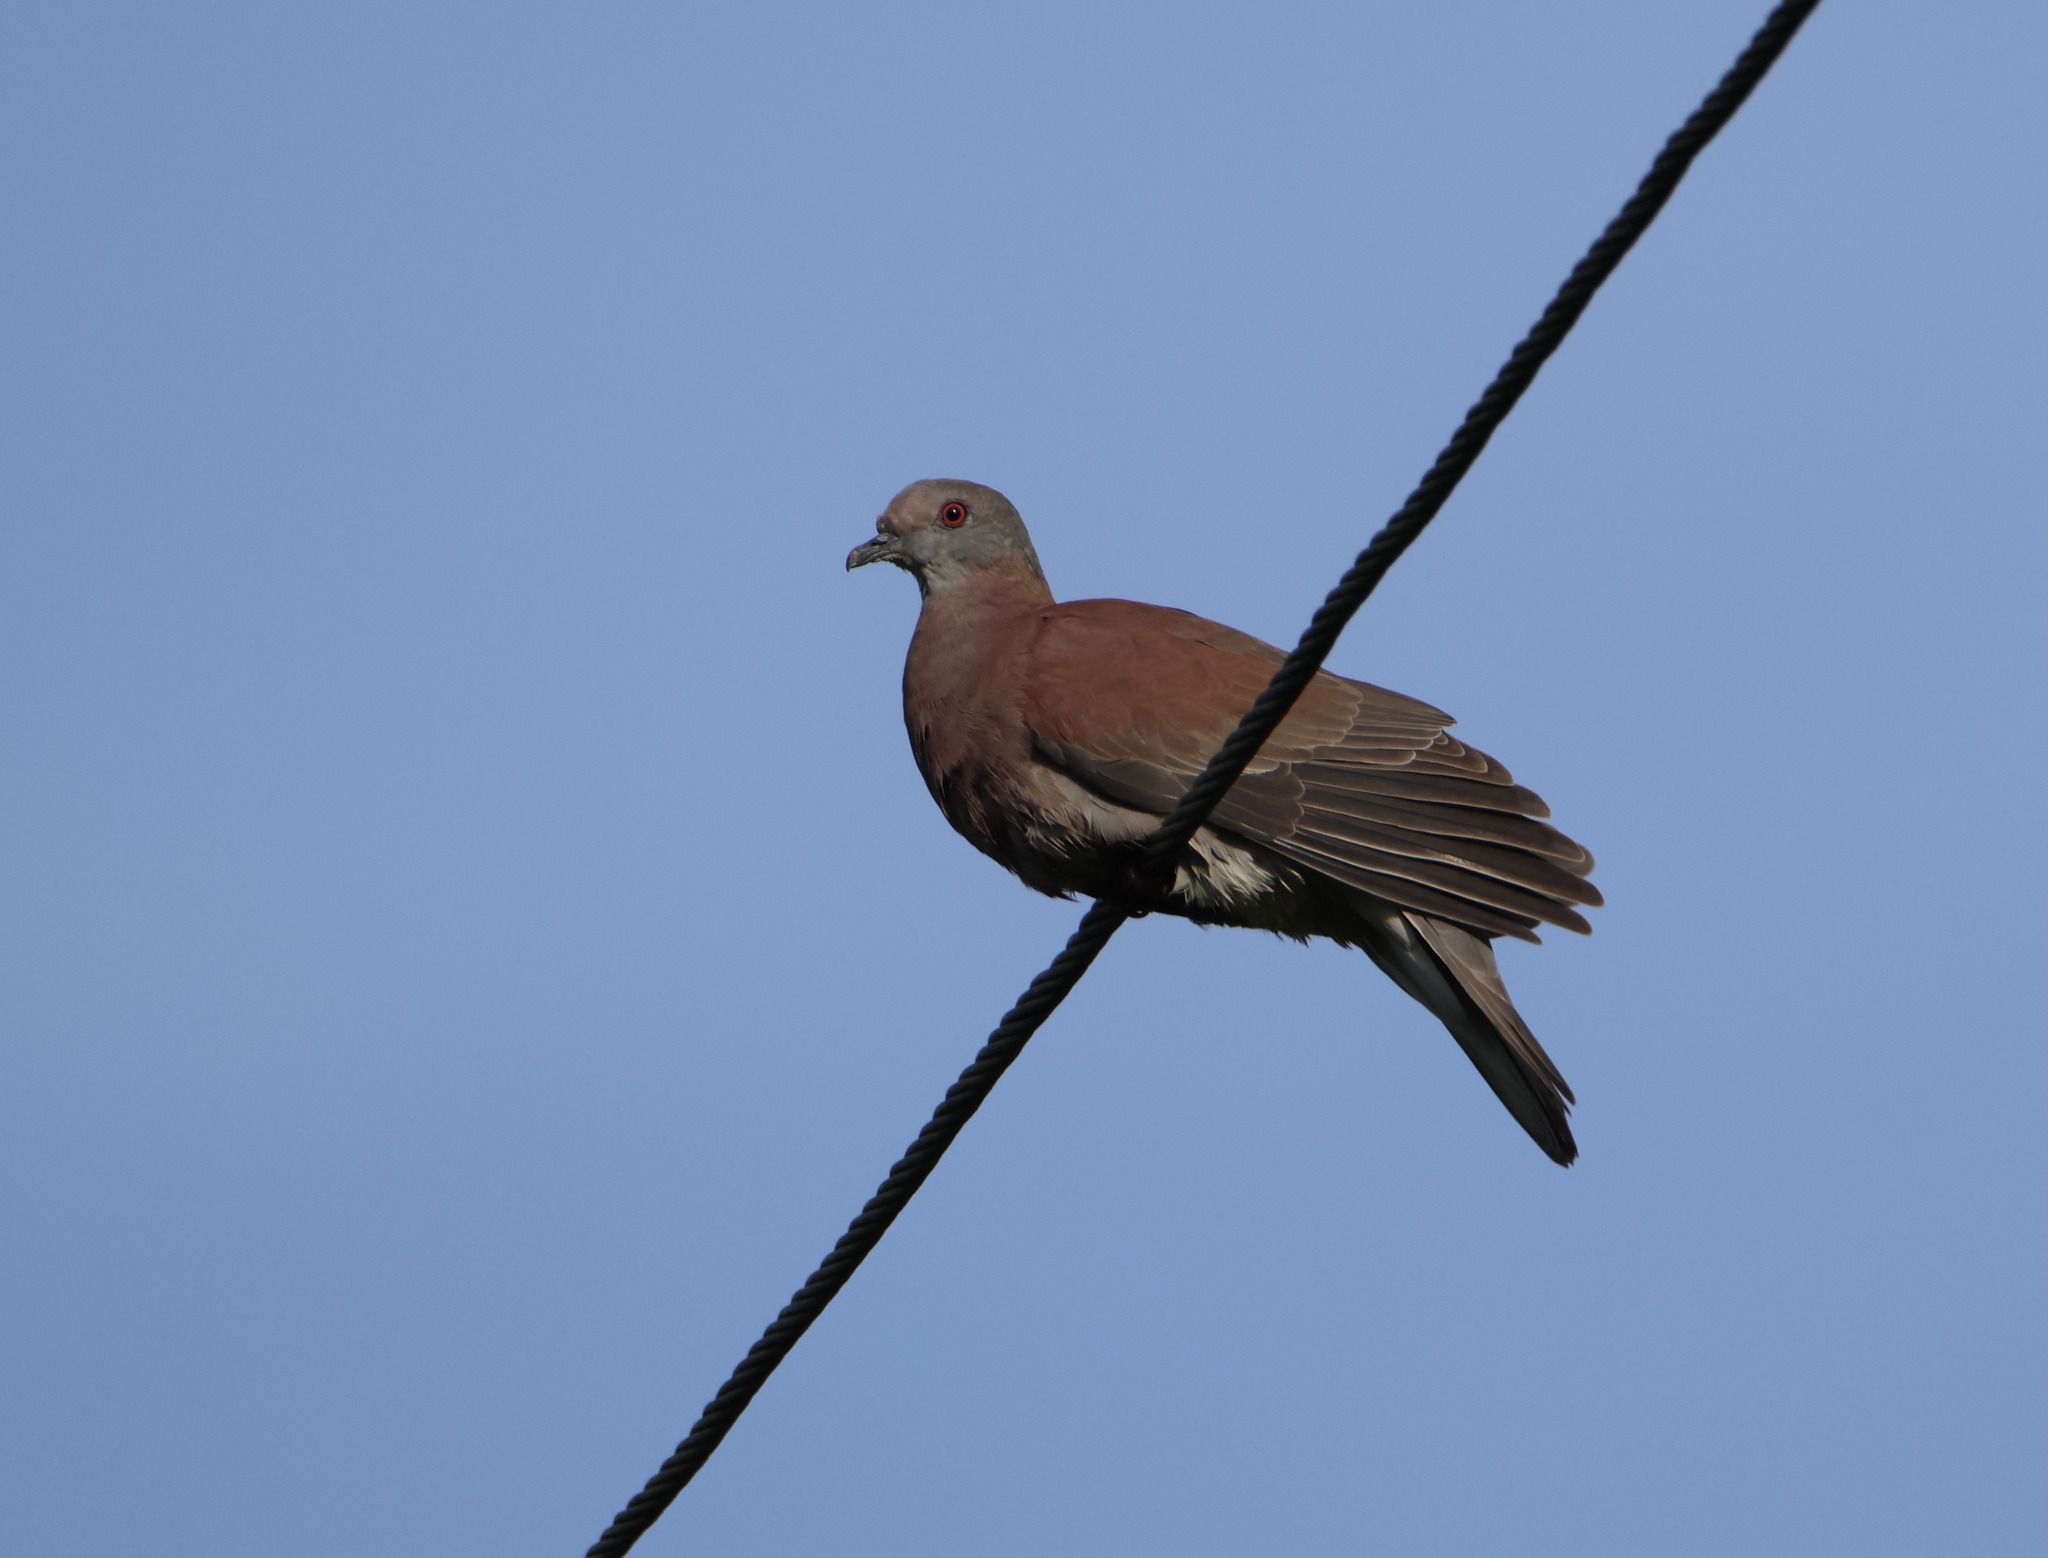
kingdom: Animalia
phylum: Chordata
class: Aves
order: Columbiformes
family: Columbidae
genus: Patagioenas
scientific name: Patagioenas cayennensis
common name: Pale-vented pigeon
